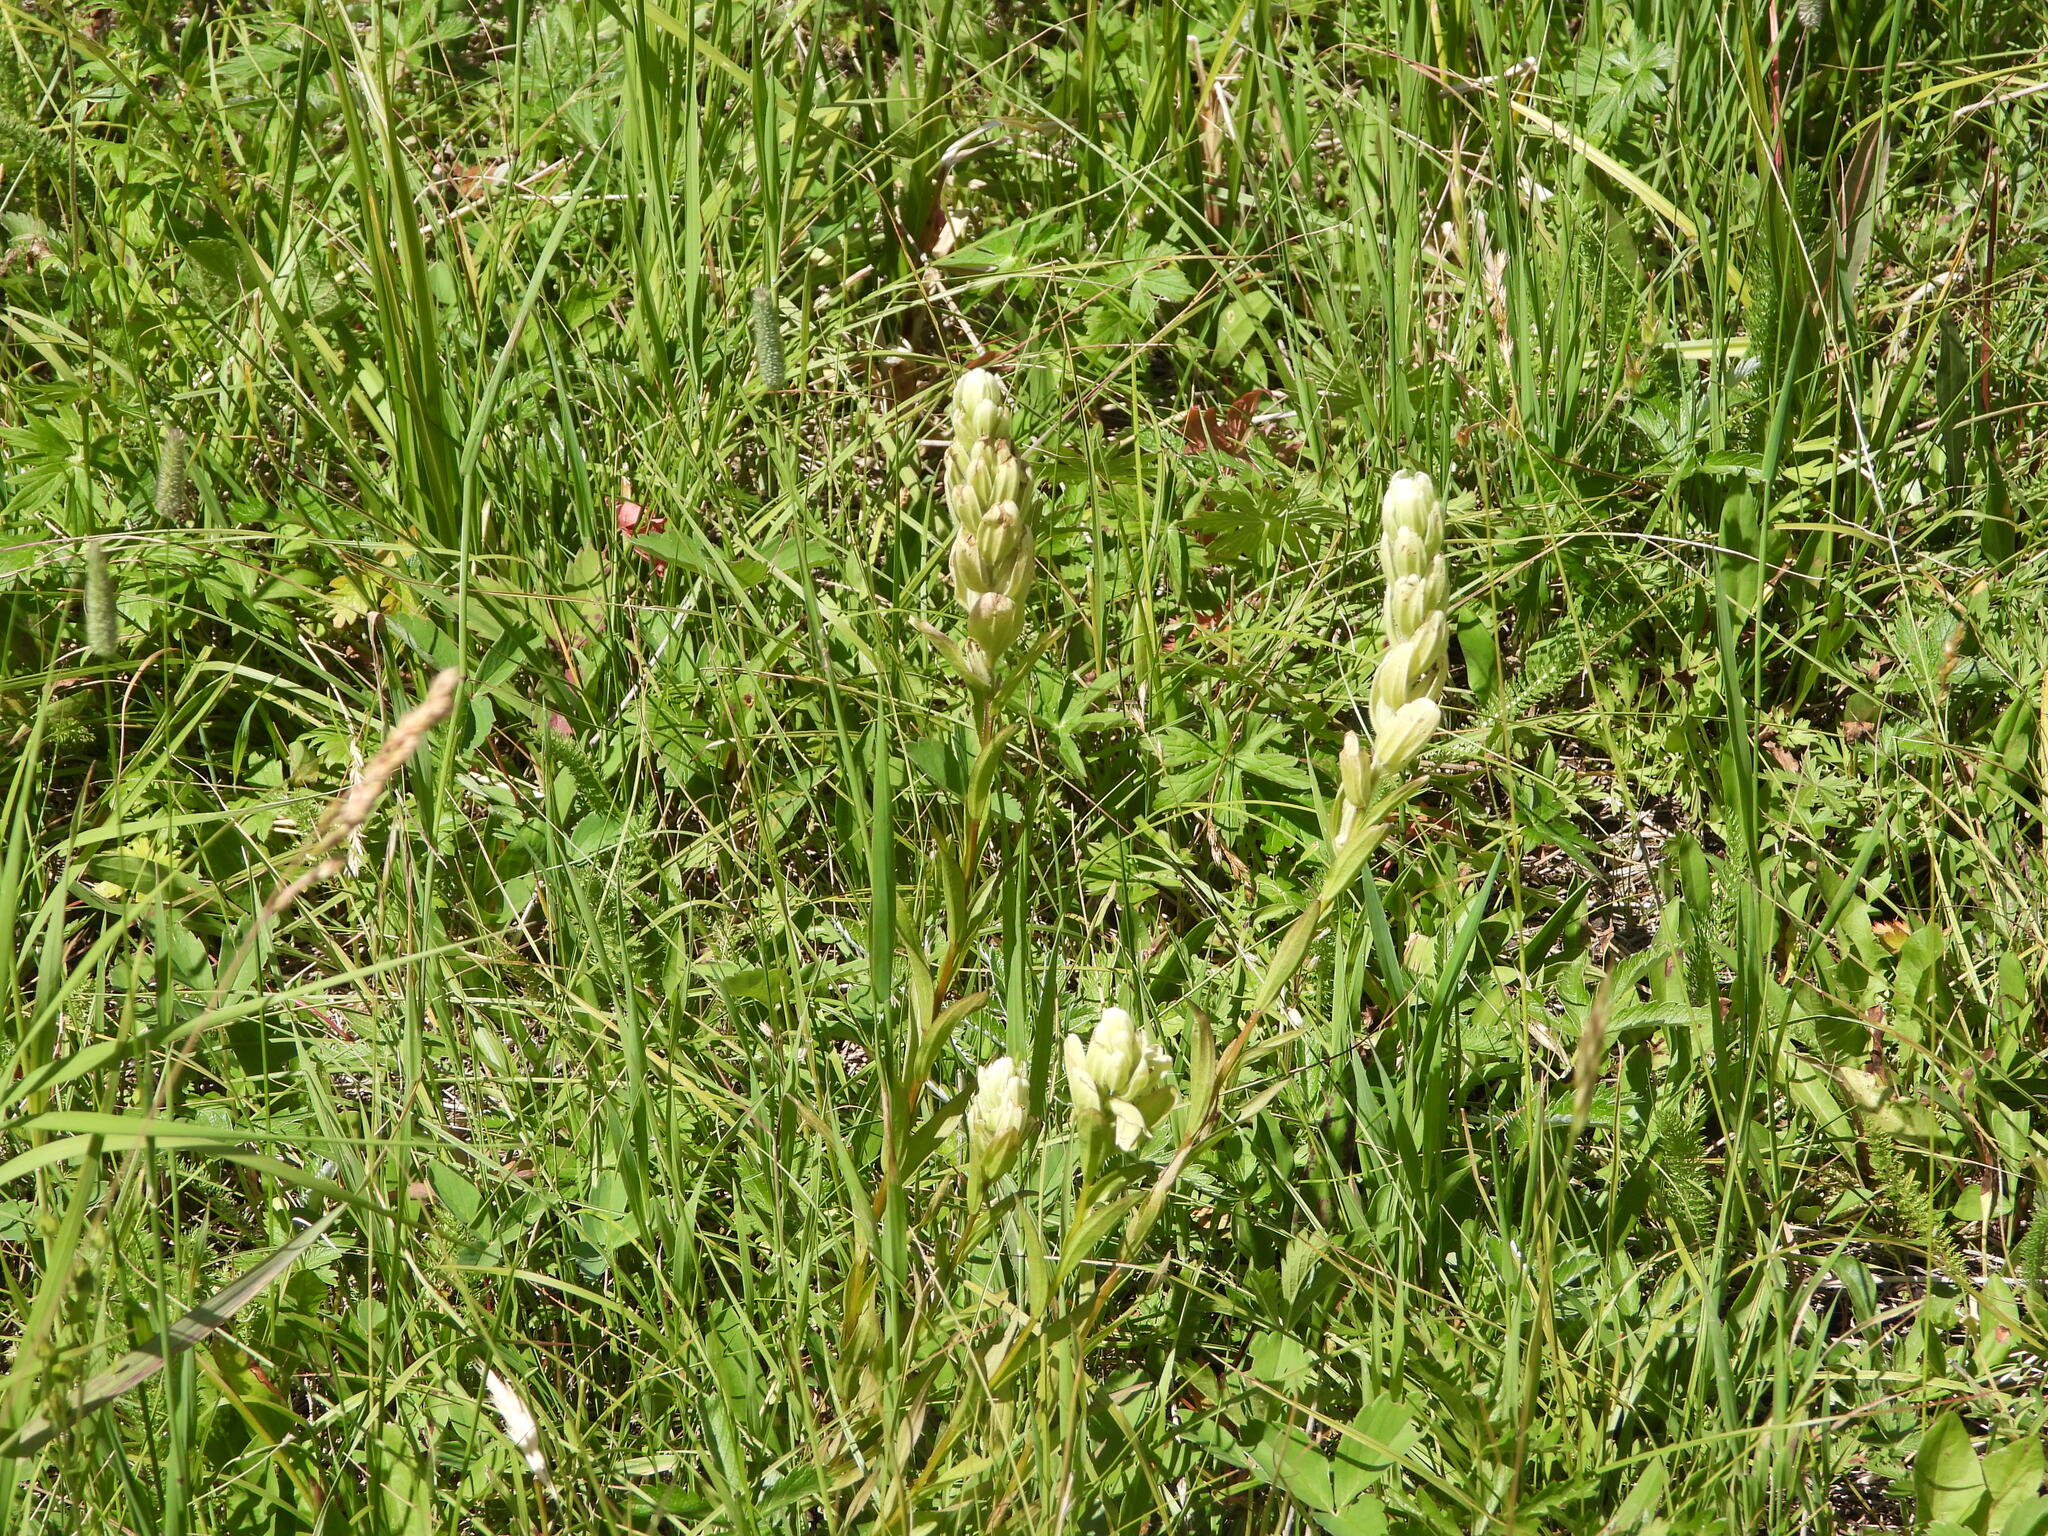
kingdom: Plantae
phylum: Tracheophyta
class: Magnoliopsida
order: Lamiales
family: Orobanchaceae
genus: Castilleja
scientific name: Castilleja septentrionalis
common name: Northeastern paintbrush
